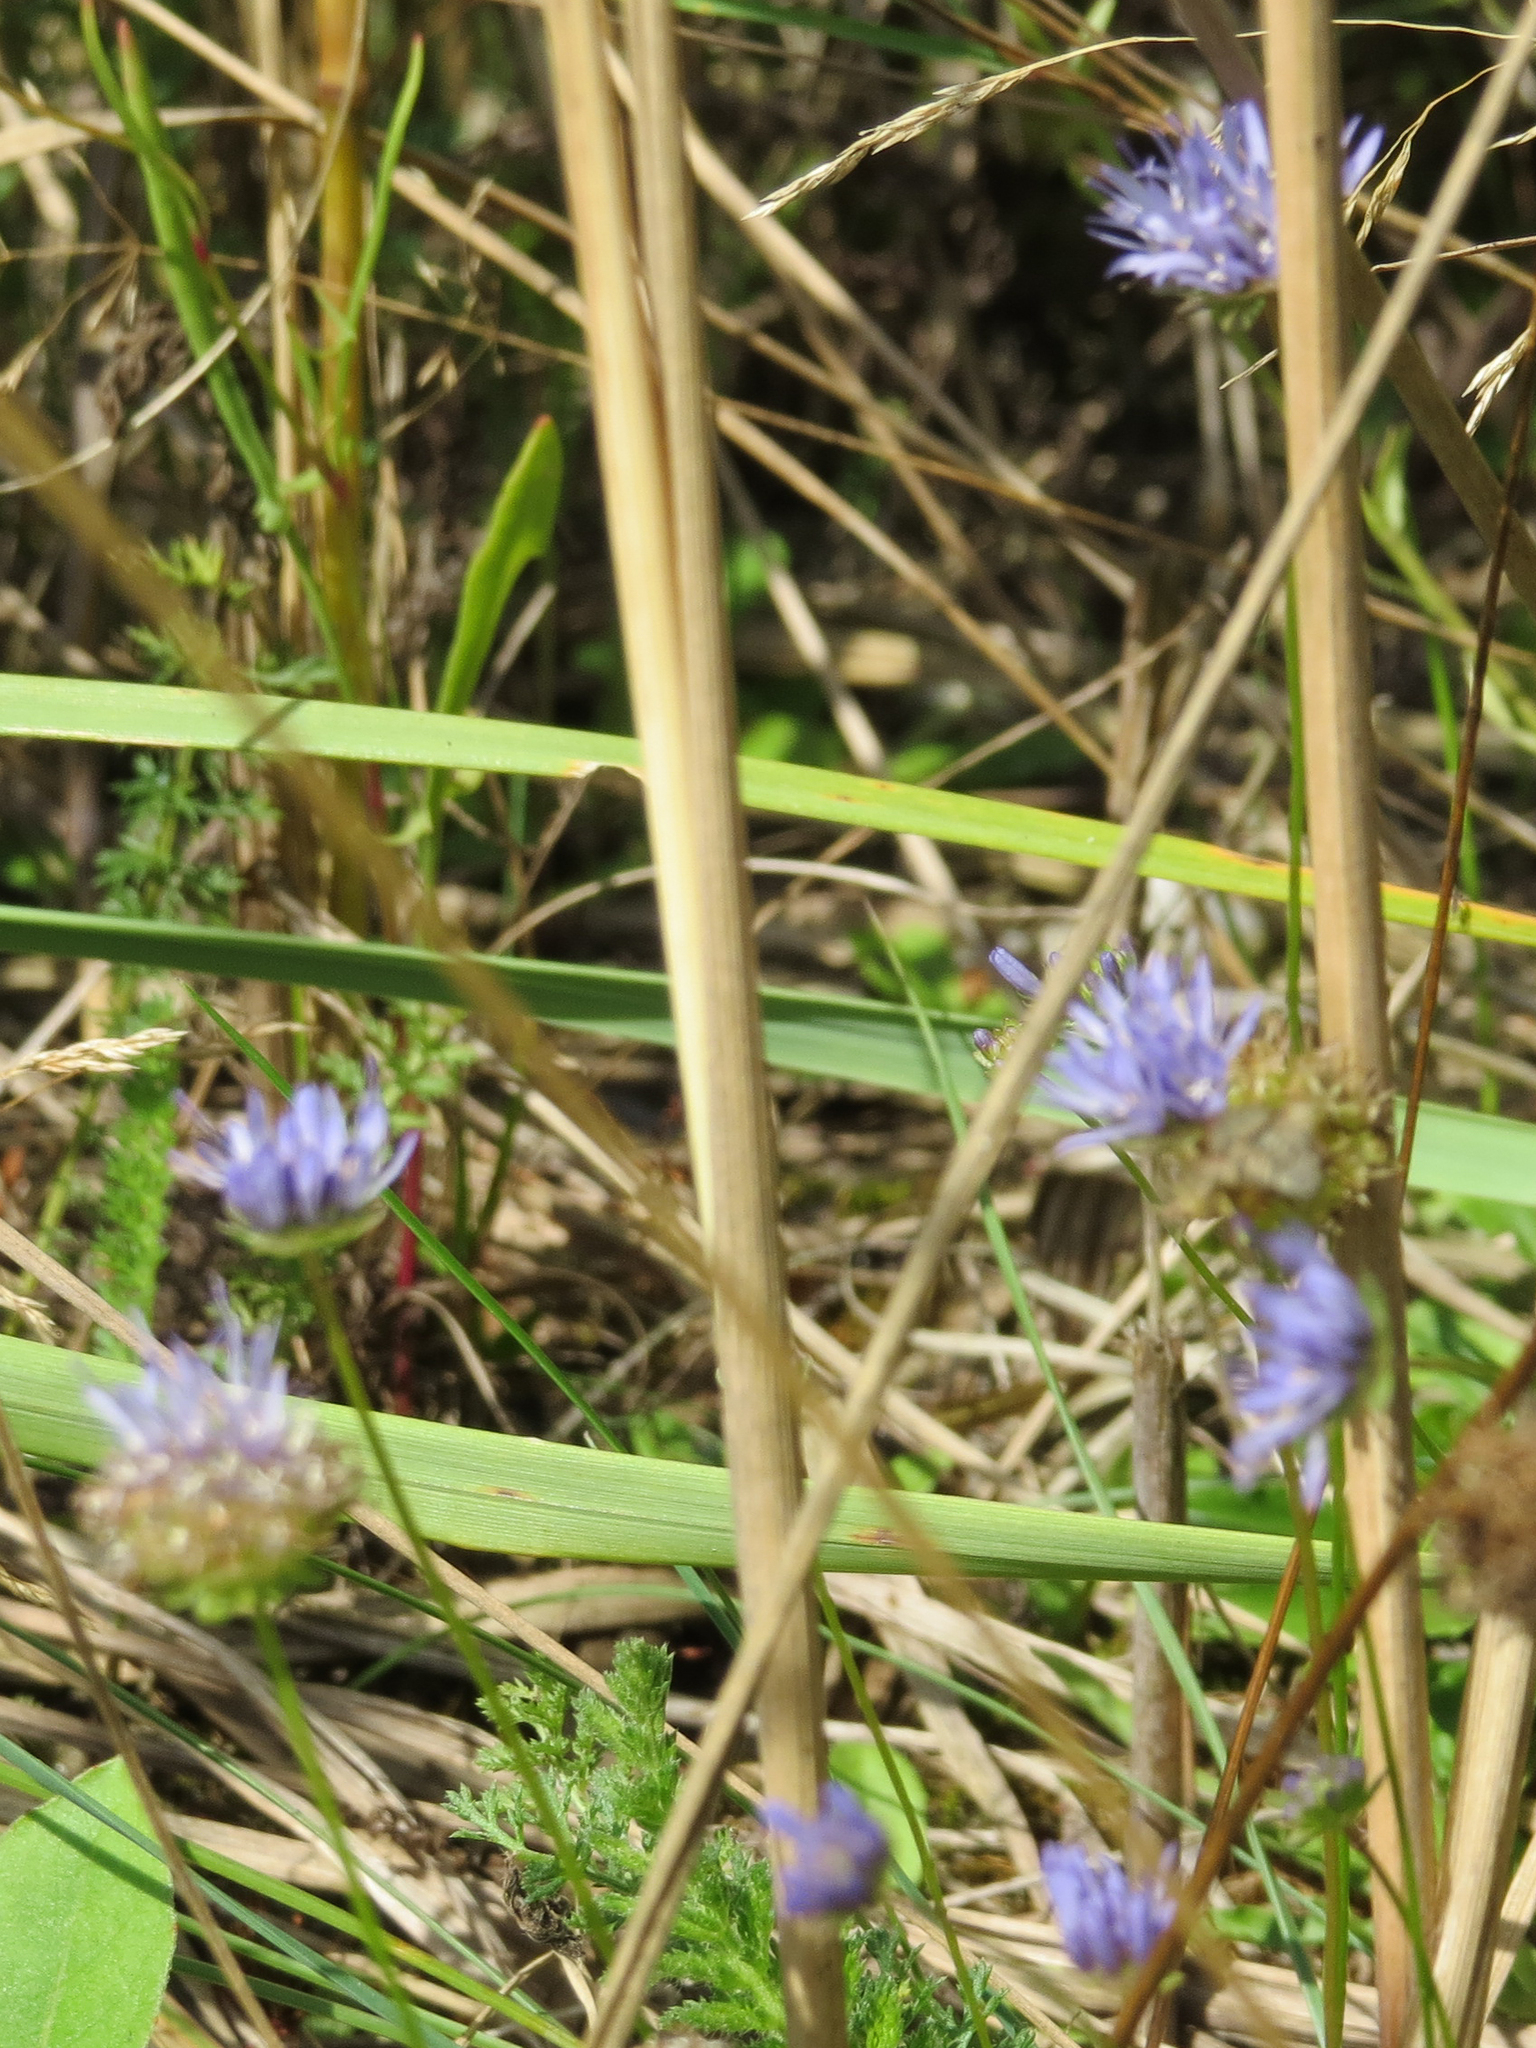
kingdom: Plantae
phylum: Tracheophyta
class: Magnoliopsida
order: Asterales
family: Campanulaceae
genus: Jasione
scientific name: Jasione montana
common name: Sheep's-bit
